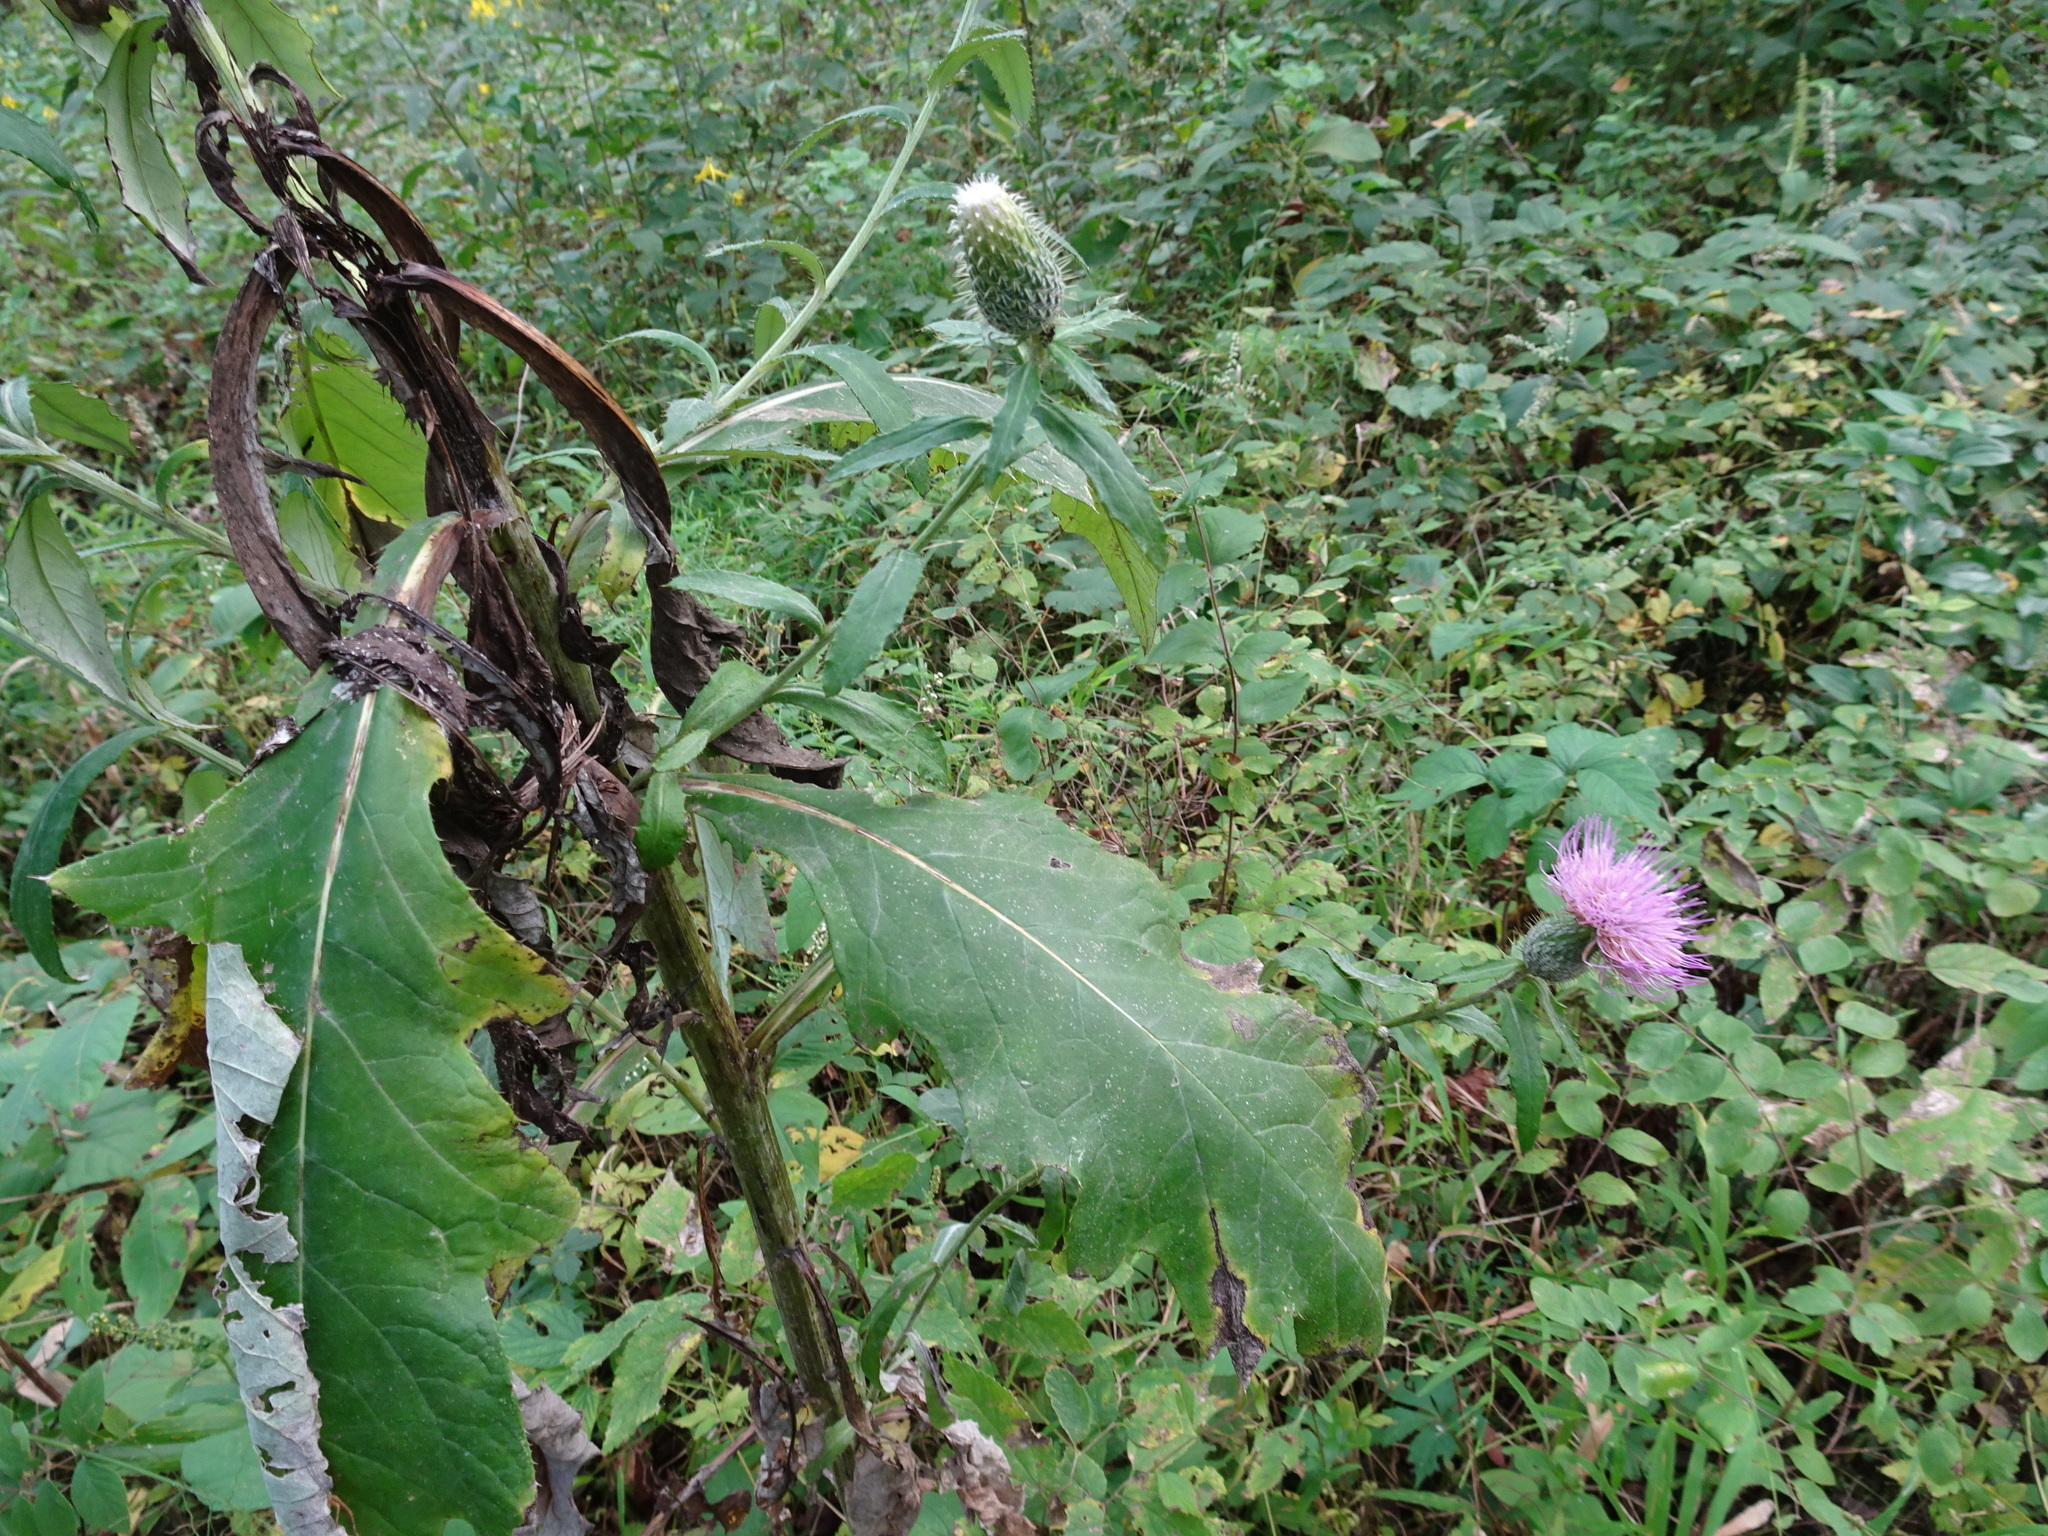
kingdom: Plantae
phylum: Tracheophyta
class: Magnoliopsida
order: Asterales
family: Asteraceae
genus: Cirsium
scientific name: Cirsium altissimum
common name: Roadside thistle
